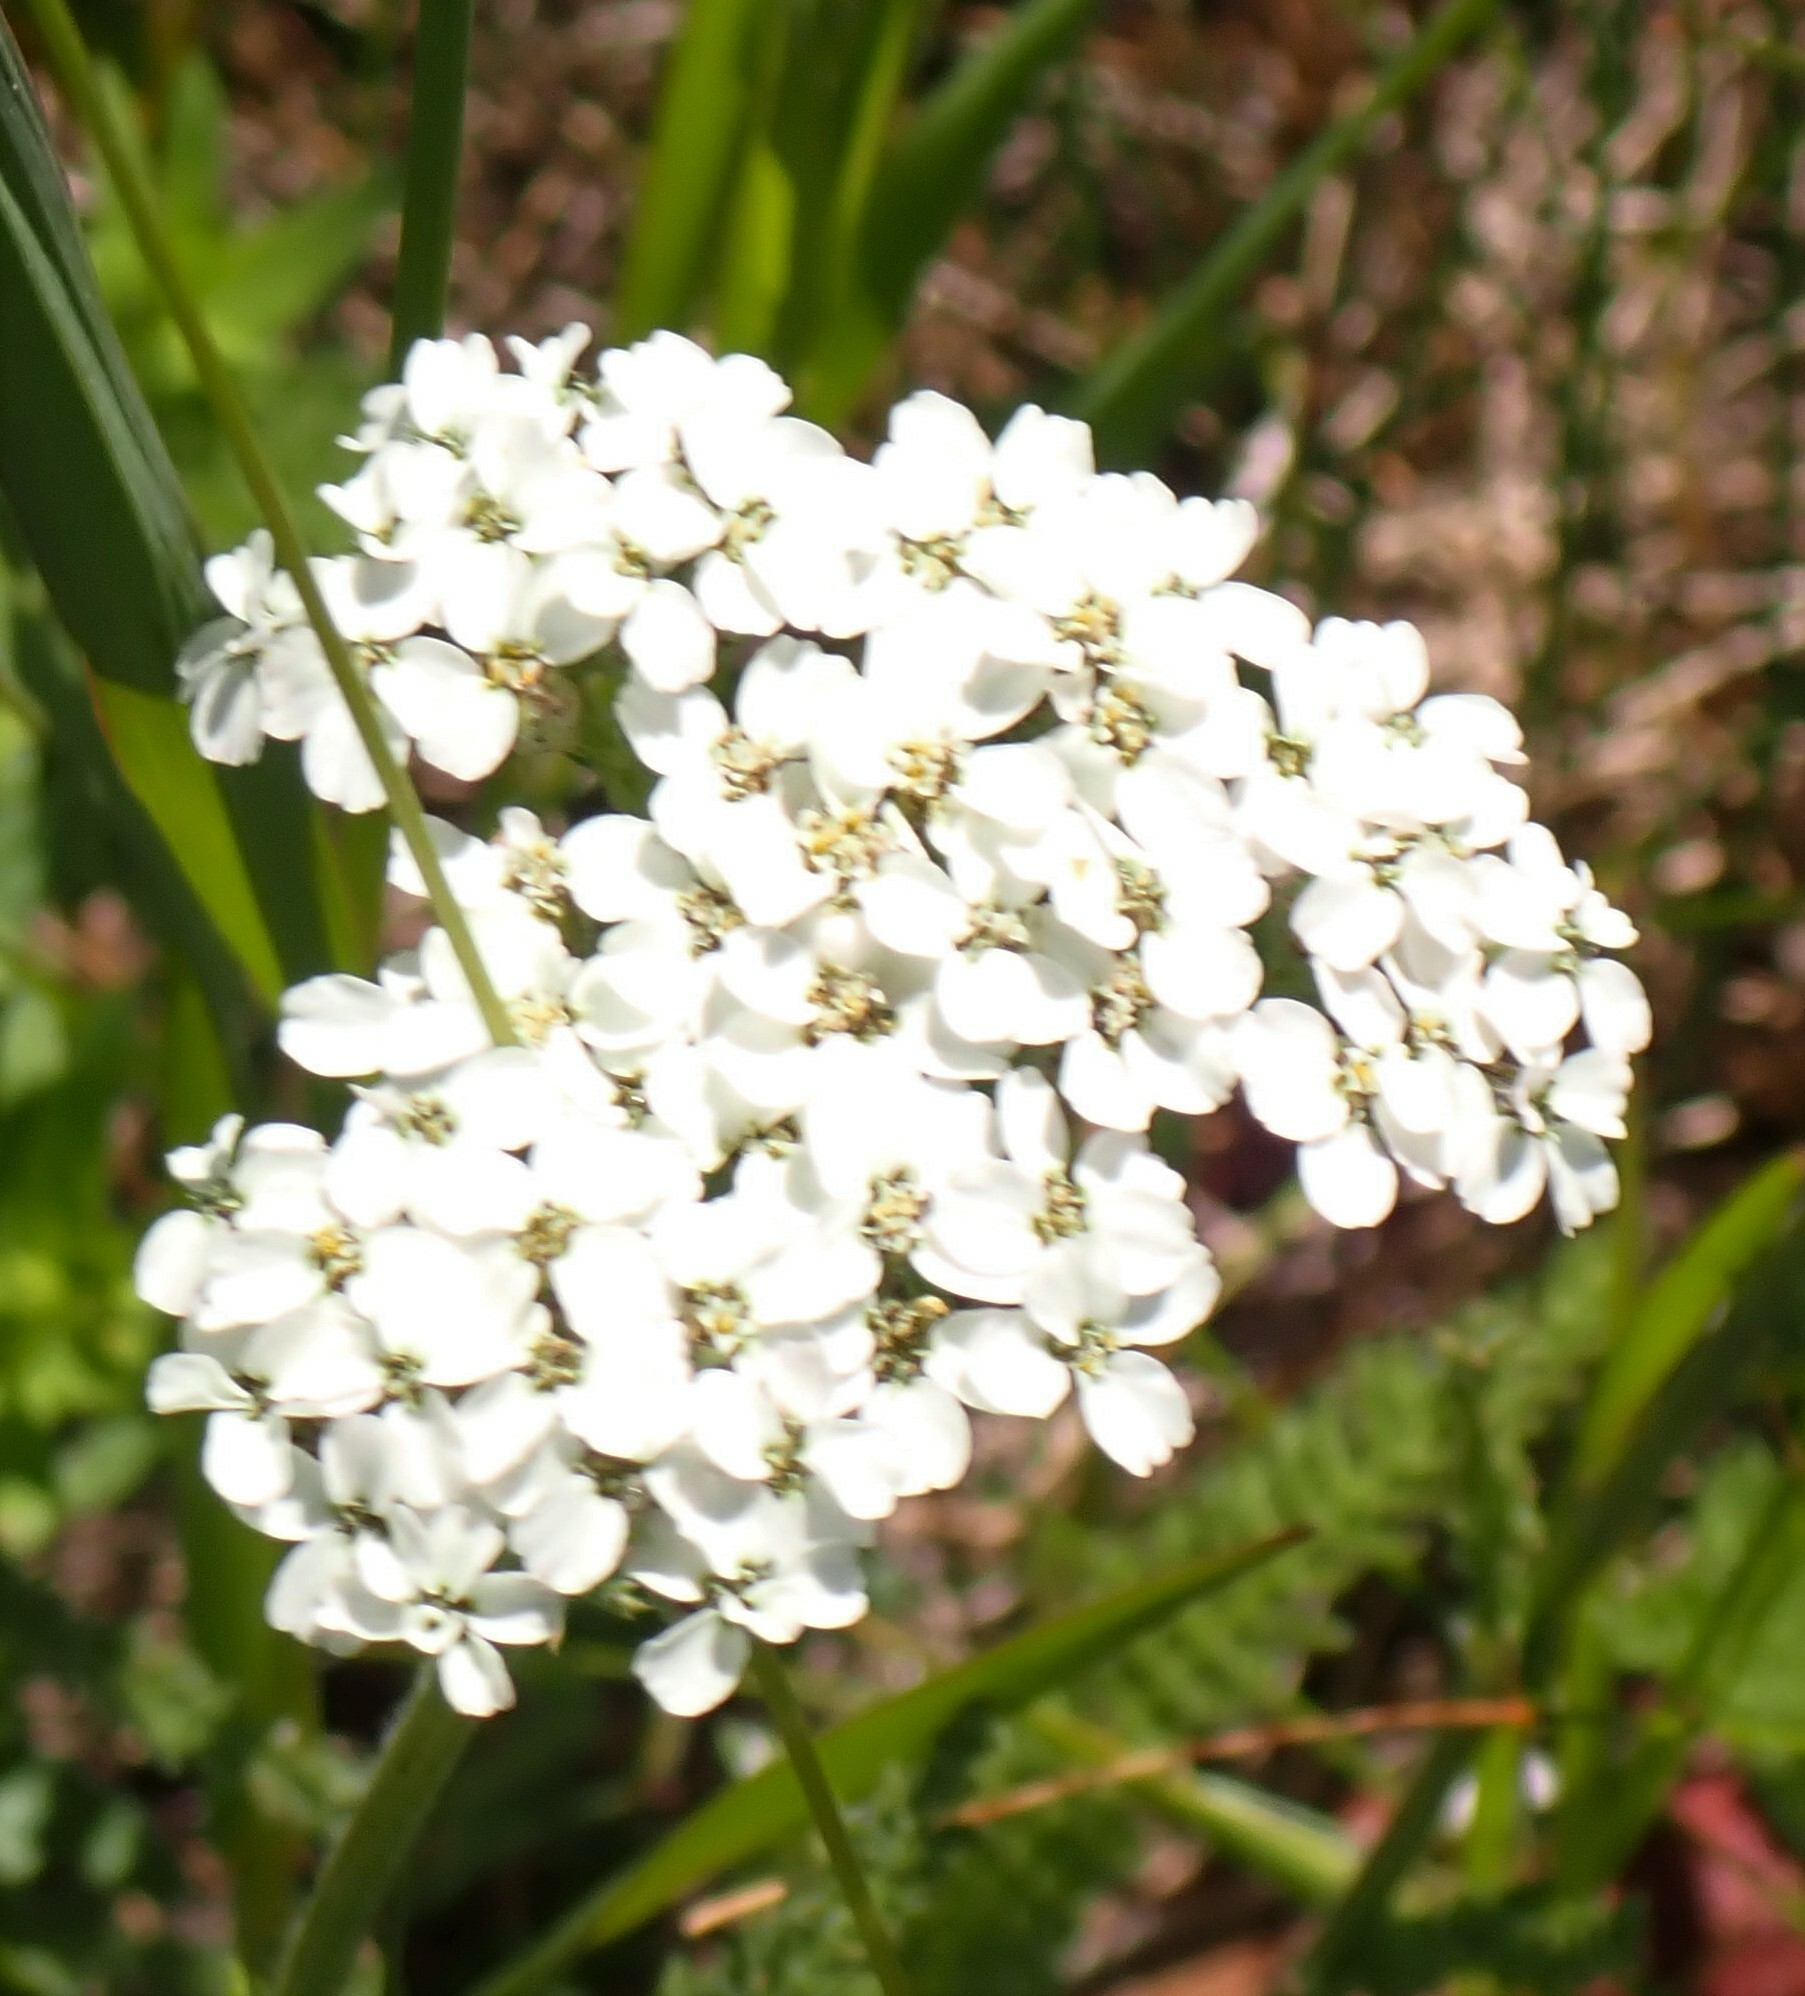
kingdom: Plantae
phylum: Tracheophyta
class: Magnoliopsida
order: Asterales
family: Asteraceae
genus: Achillea
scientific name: Achillea millefolium
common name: Yarrow
